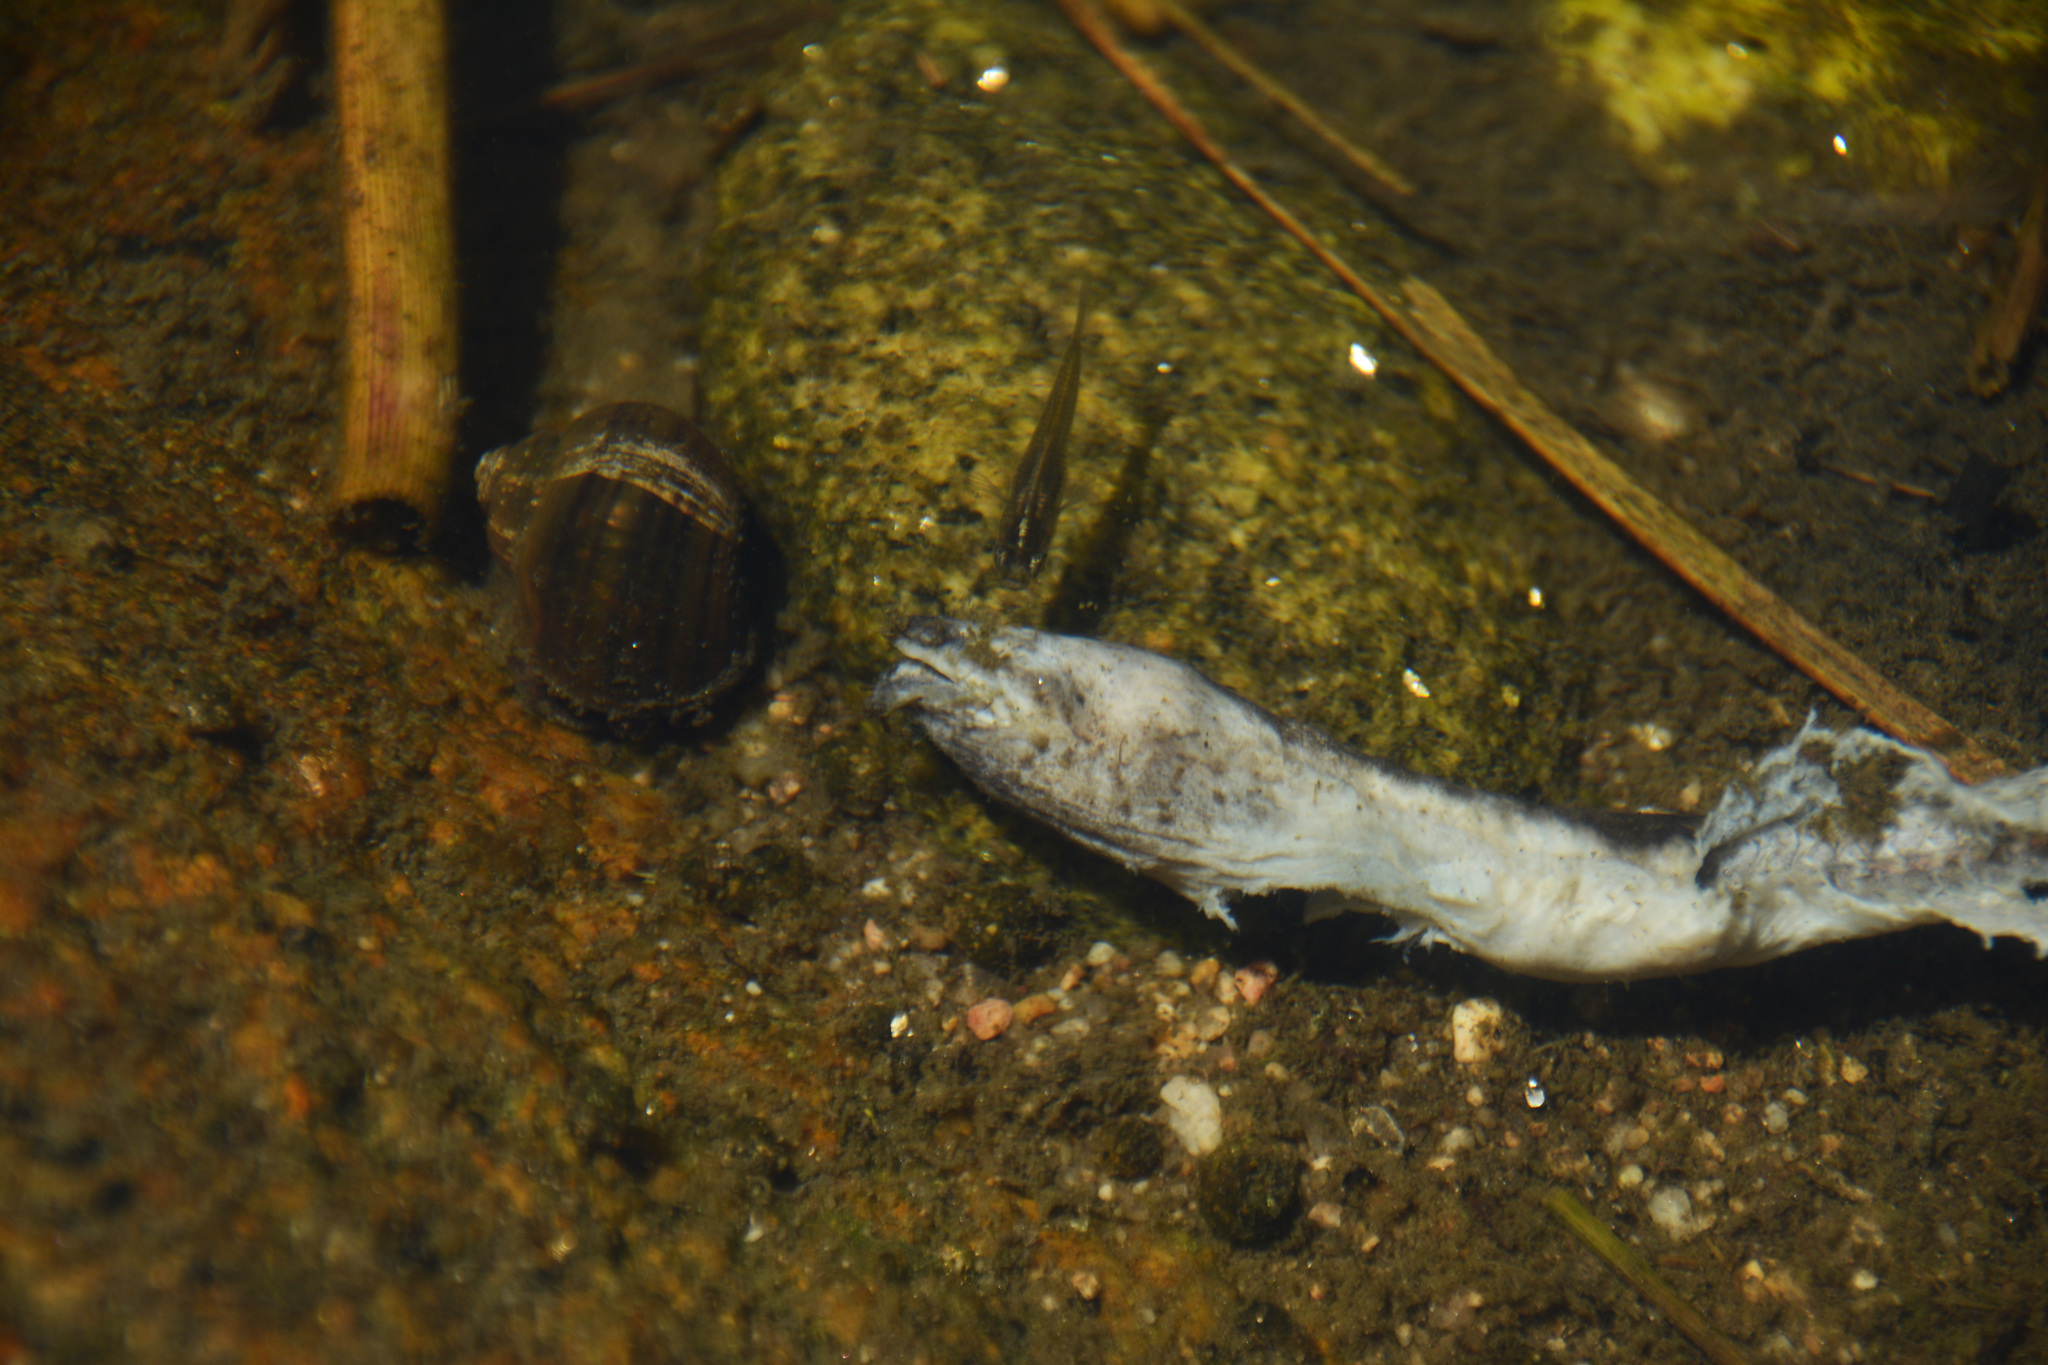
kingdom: Animalia
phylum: Chordata
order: Synbranchiformes
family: Synbranchidae
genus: Synbranchus
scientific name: Synbranchus marmoratus
